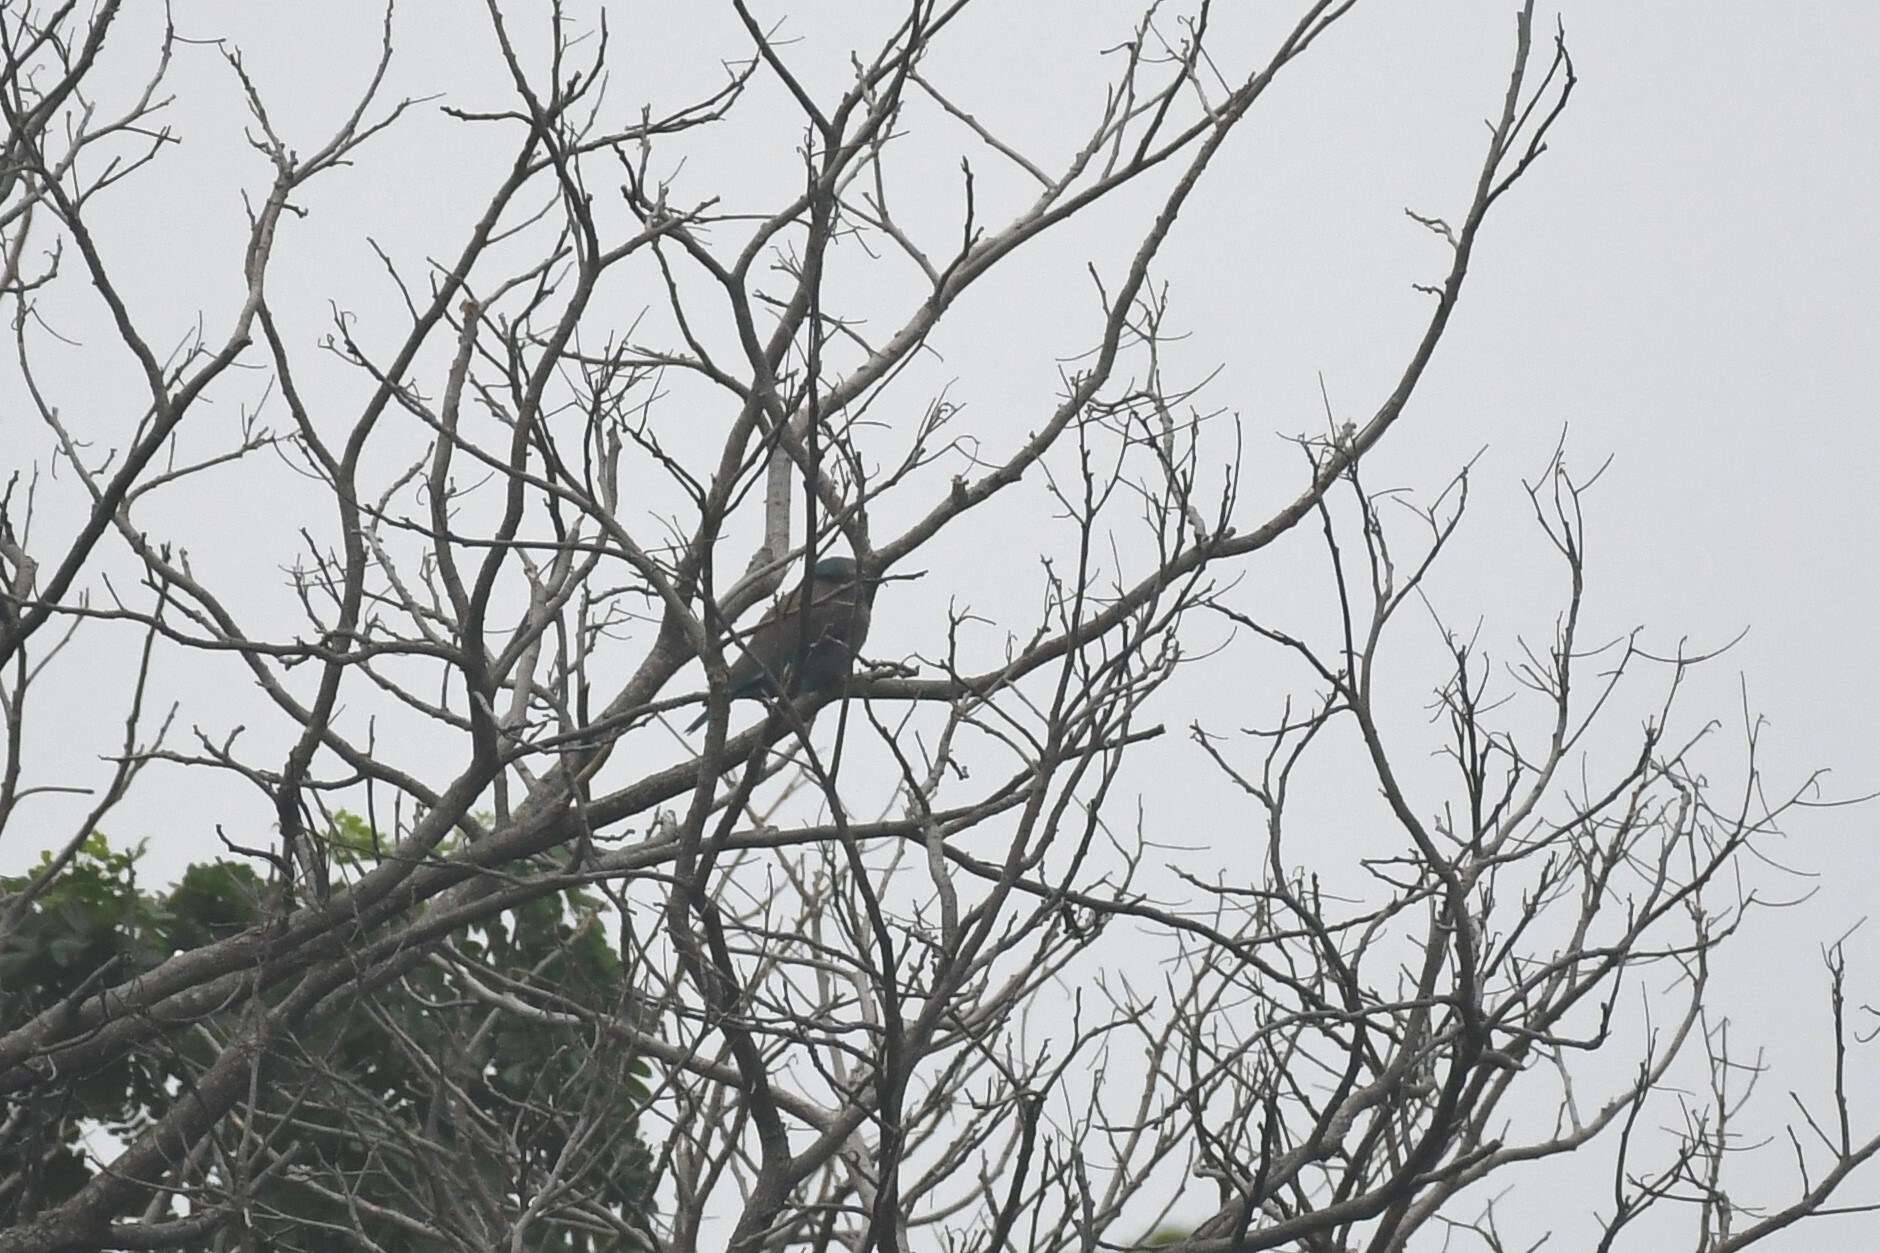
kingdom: Animalia
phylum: Chordata
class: Aves
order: Coraciiformes
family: Coraciidae
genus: Coracias
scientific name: Coracias affinis
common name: Indochinese roller
